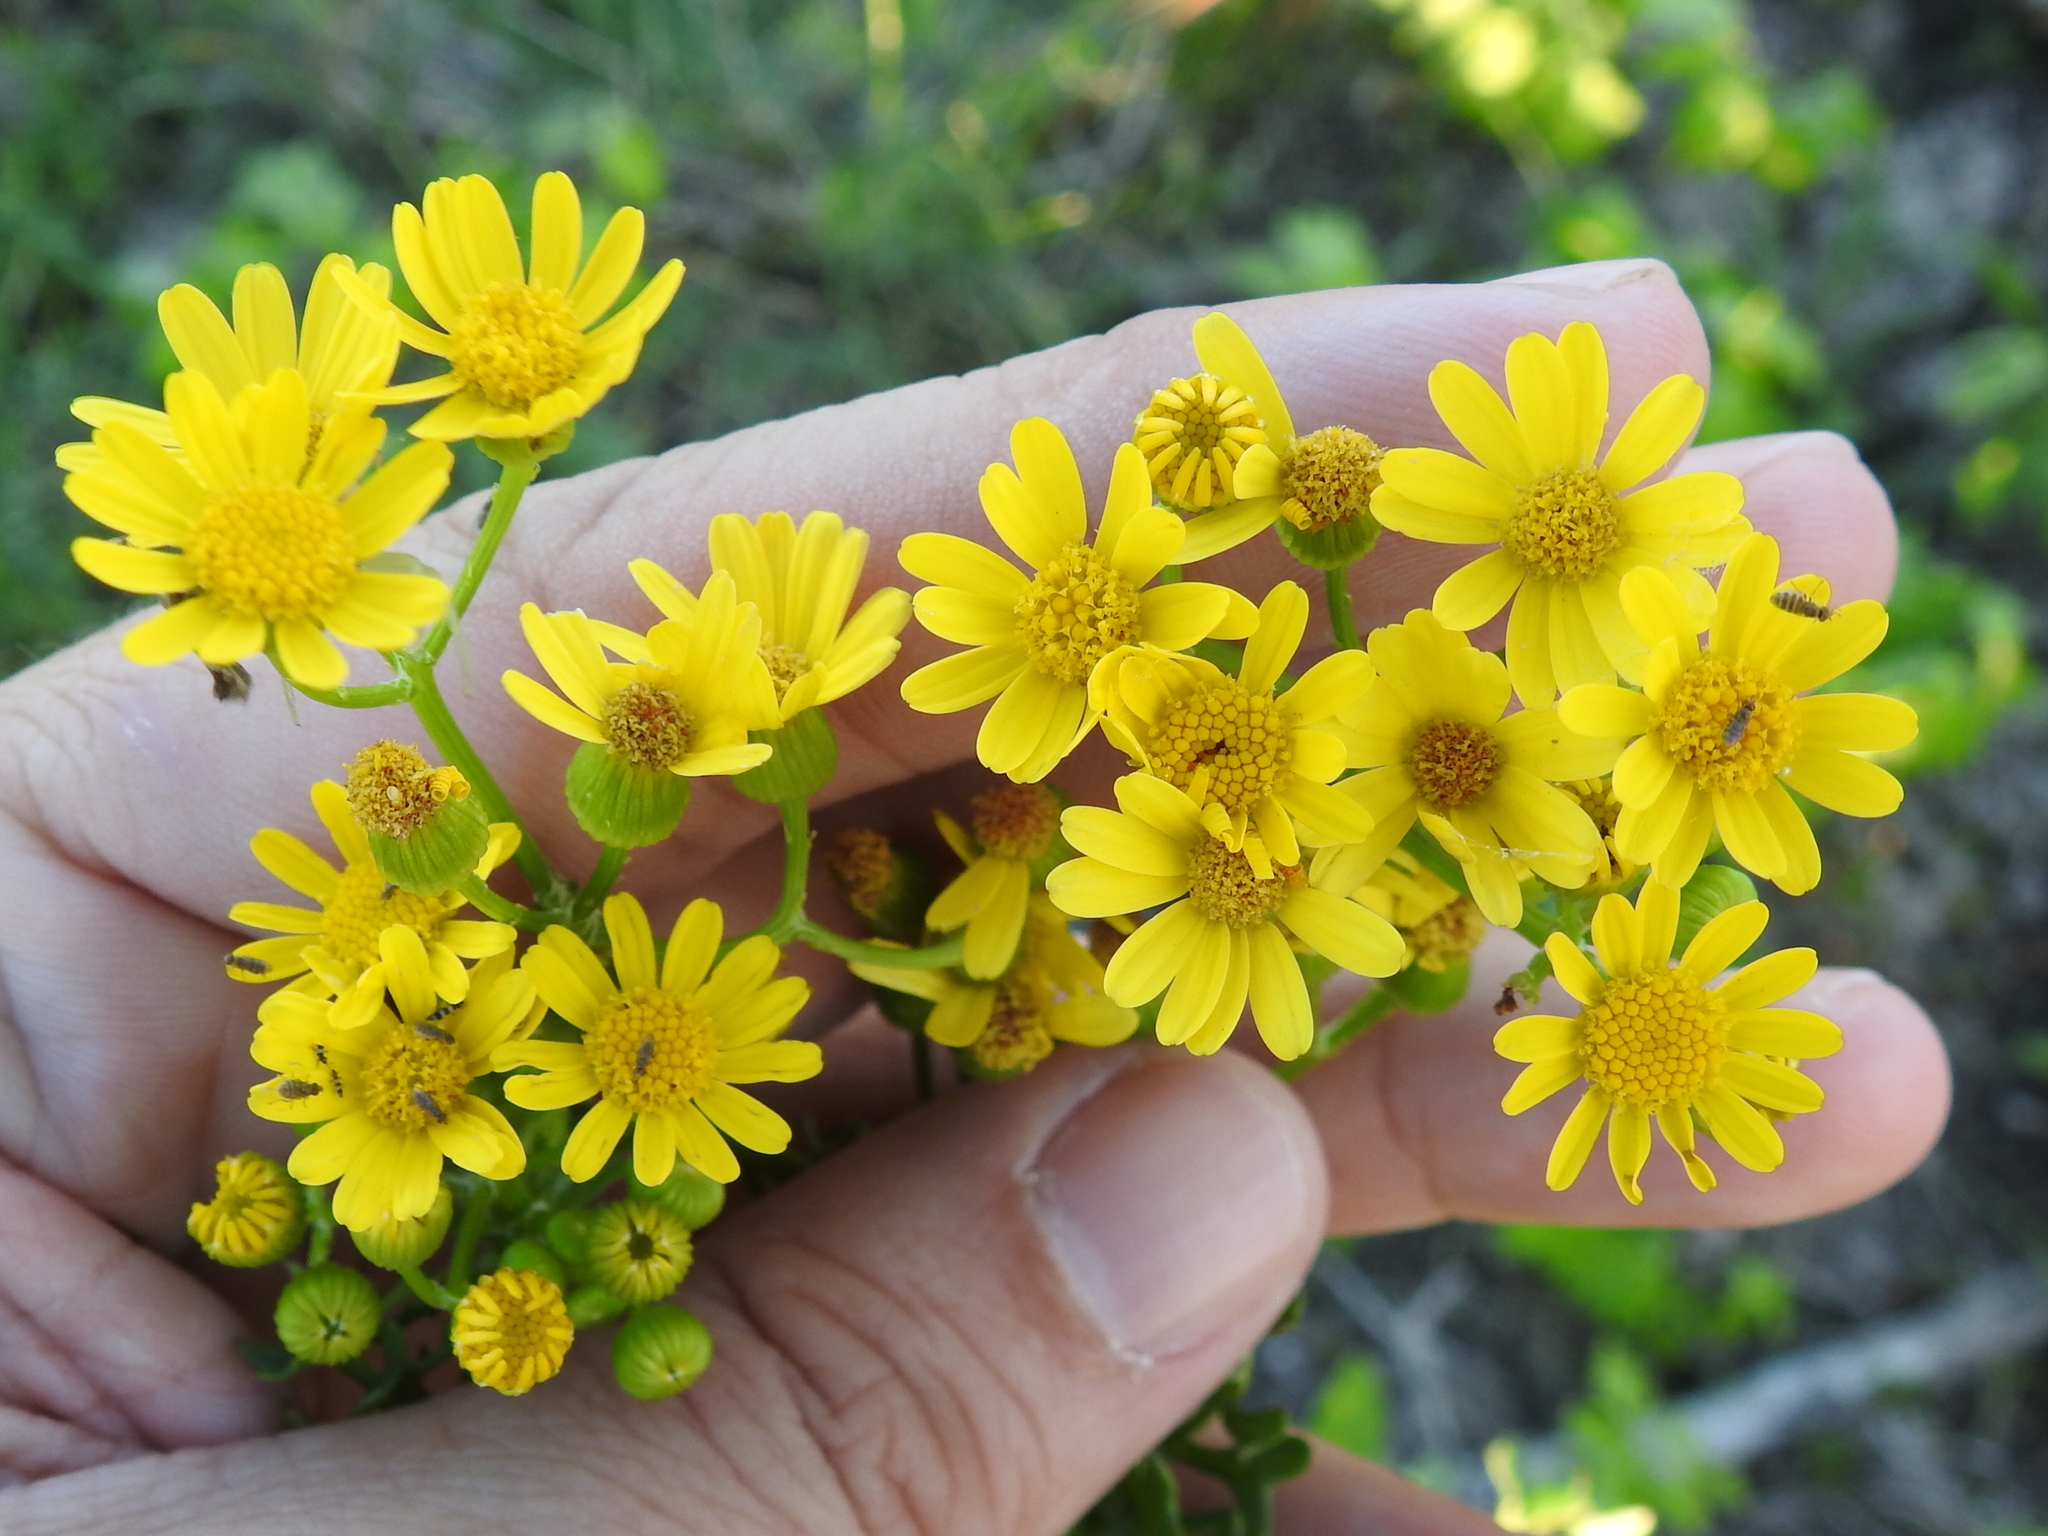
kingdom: Plantae
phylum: Tracheophyta
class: Magnoliopsida
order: Asterales
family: Asteraceae
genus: Packera
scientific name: Packera tampicana
